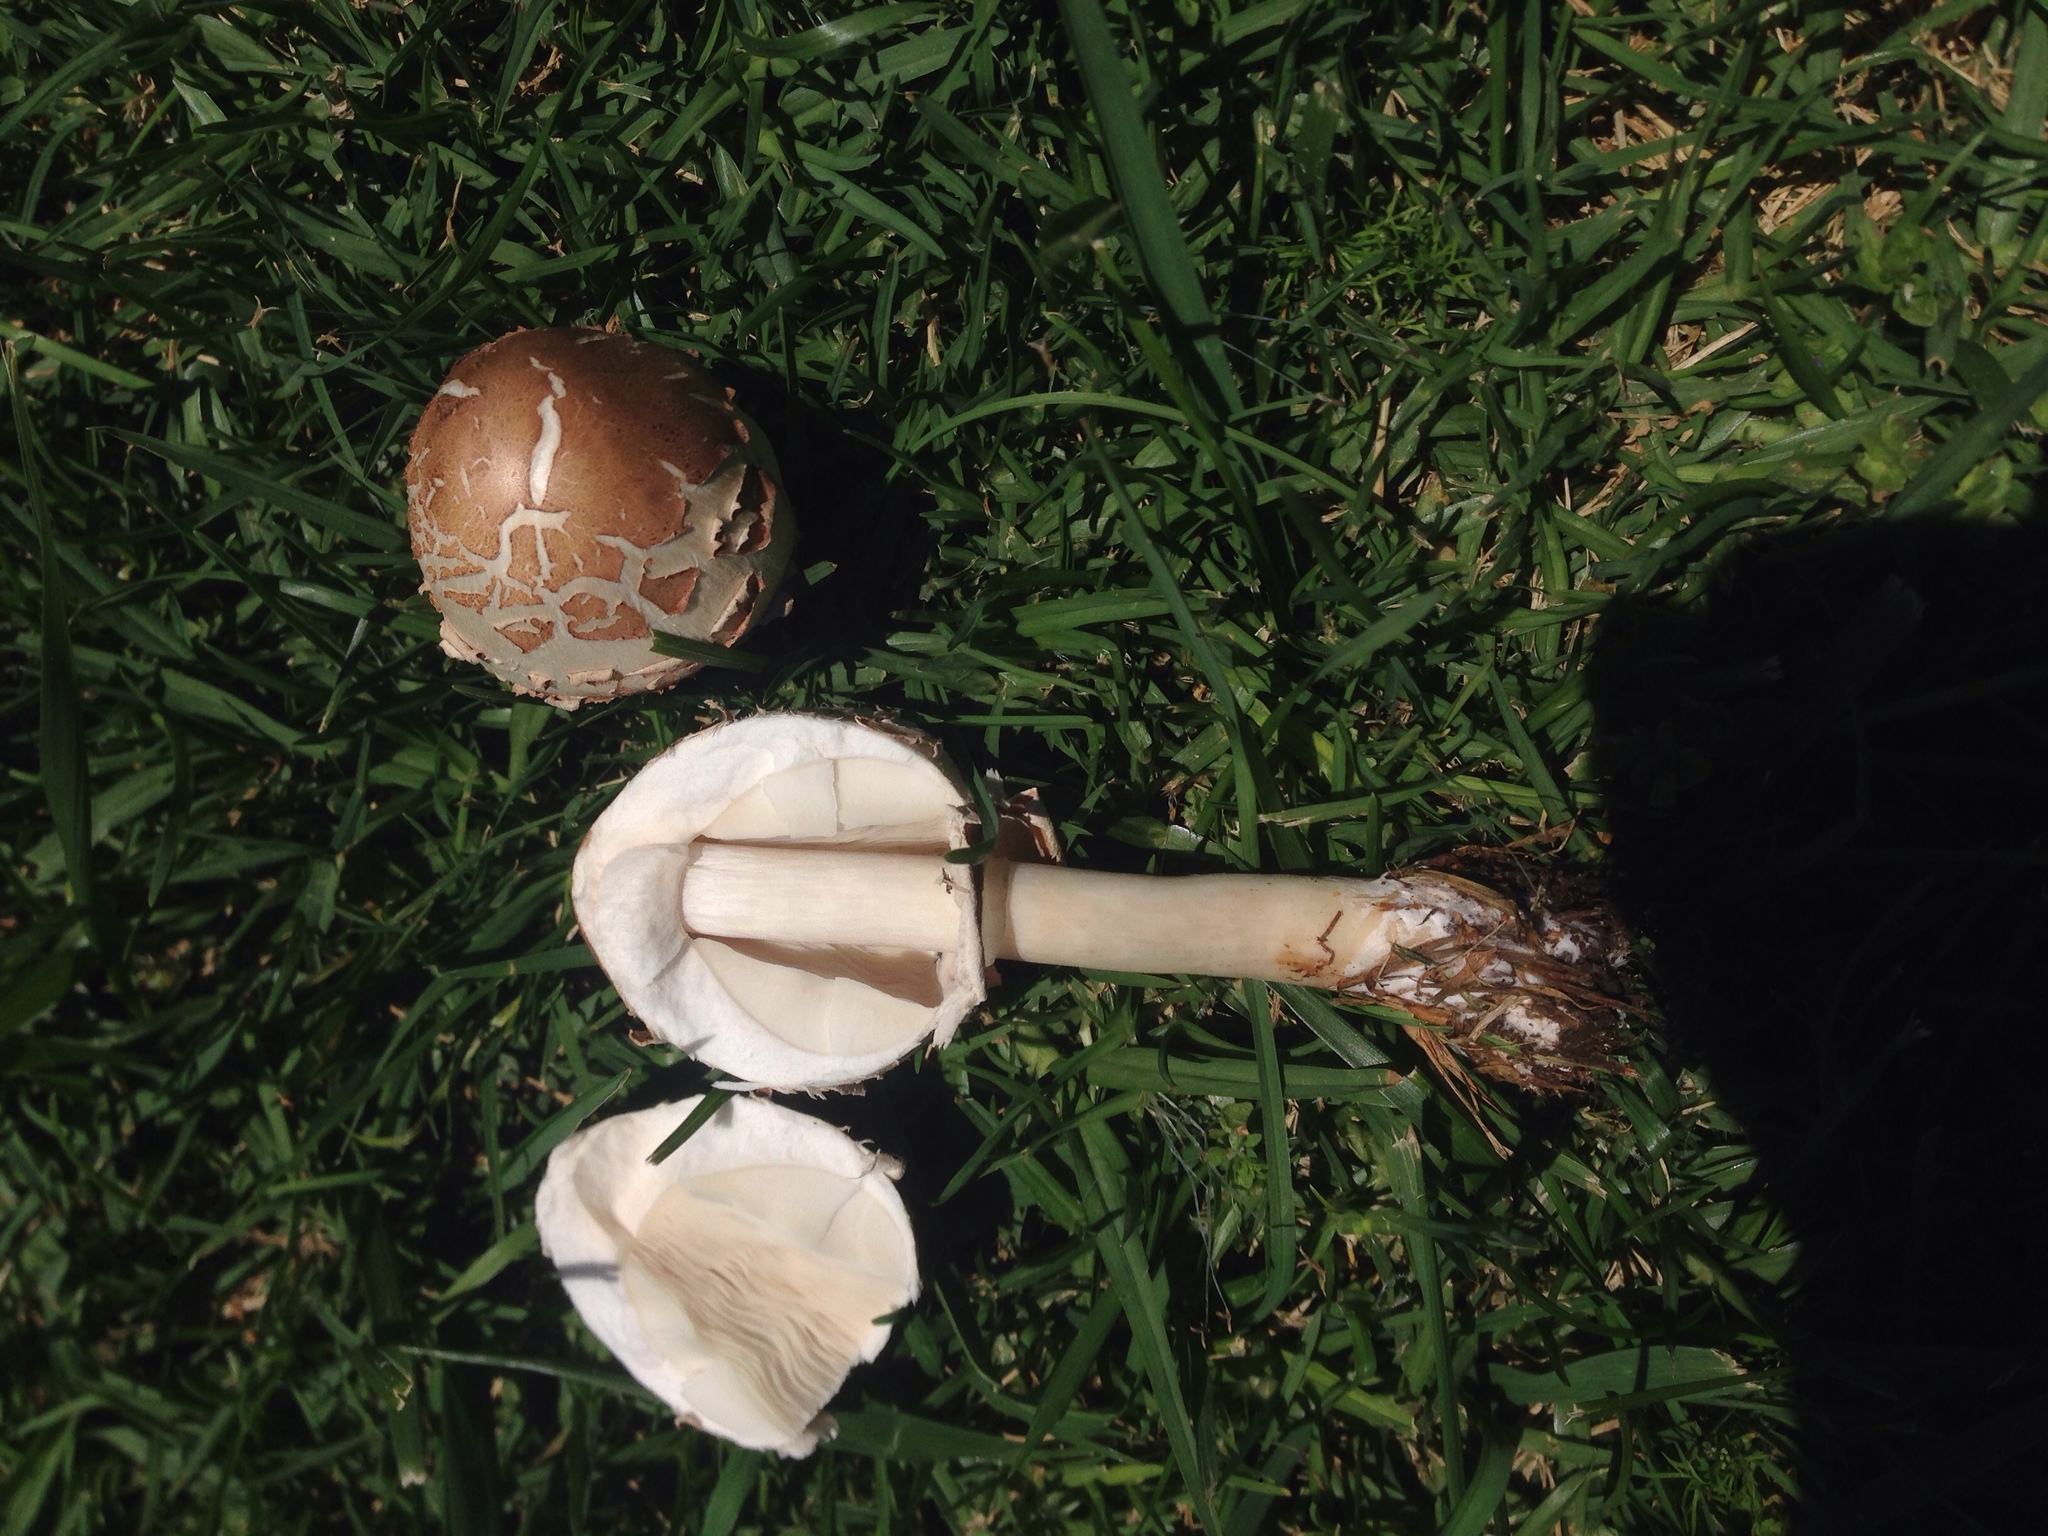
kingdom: Fungi
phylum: Basidiomycota
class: Agaricomycetes
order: Agaricales
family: Agaricaceae
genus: Chlorophyllum
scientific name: Chlorophyllum molybdites
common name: False parasol
